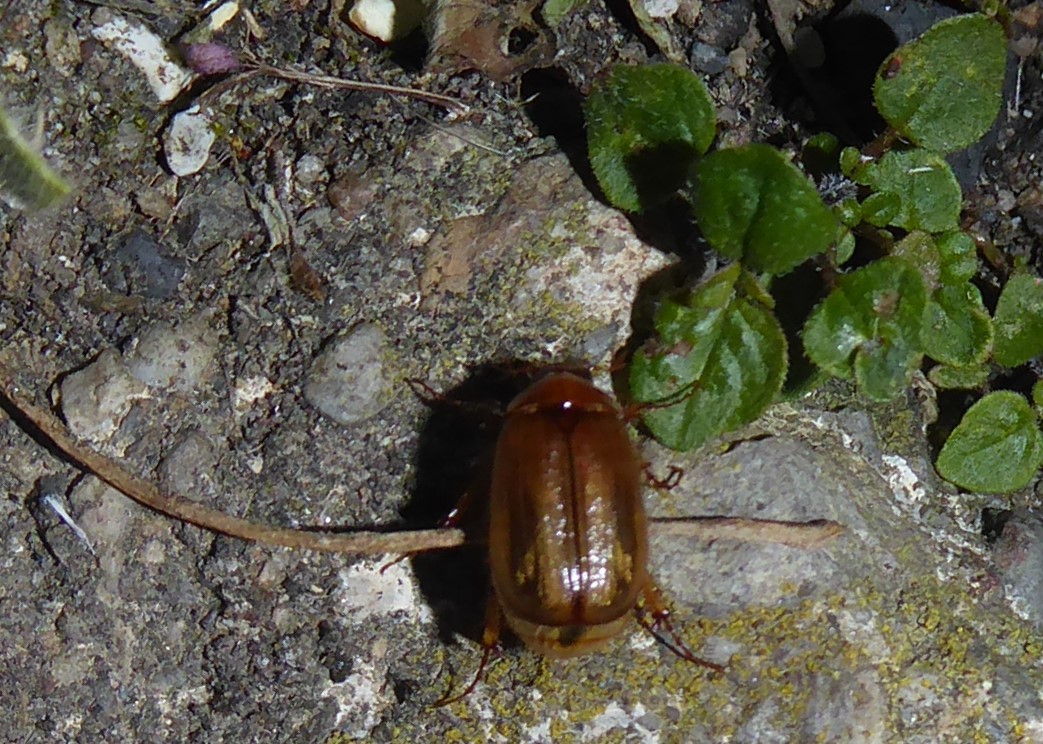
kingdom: Animalia
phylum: Arthropoda
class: Insecta
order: Coleoptera
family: Scarabaeidae
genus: Costelytra
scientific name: Costelytra zealandica
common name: New zealand grass grub
